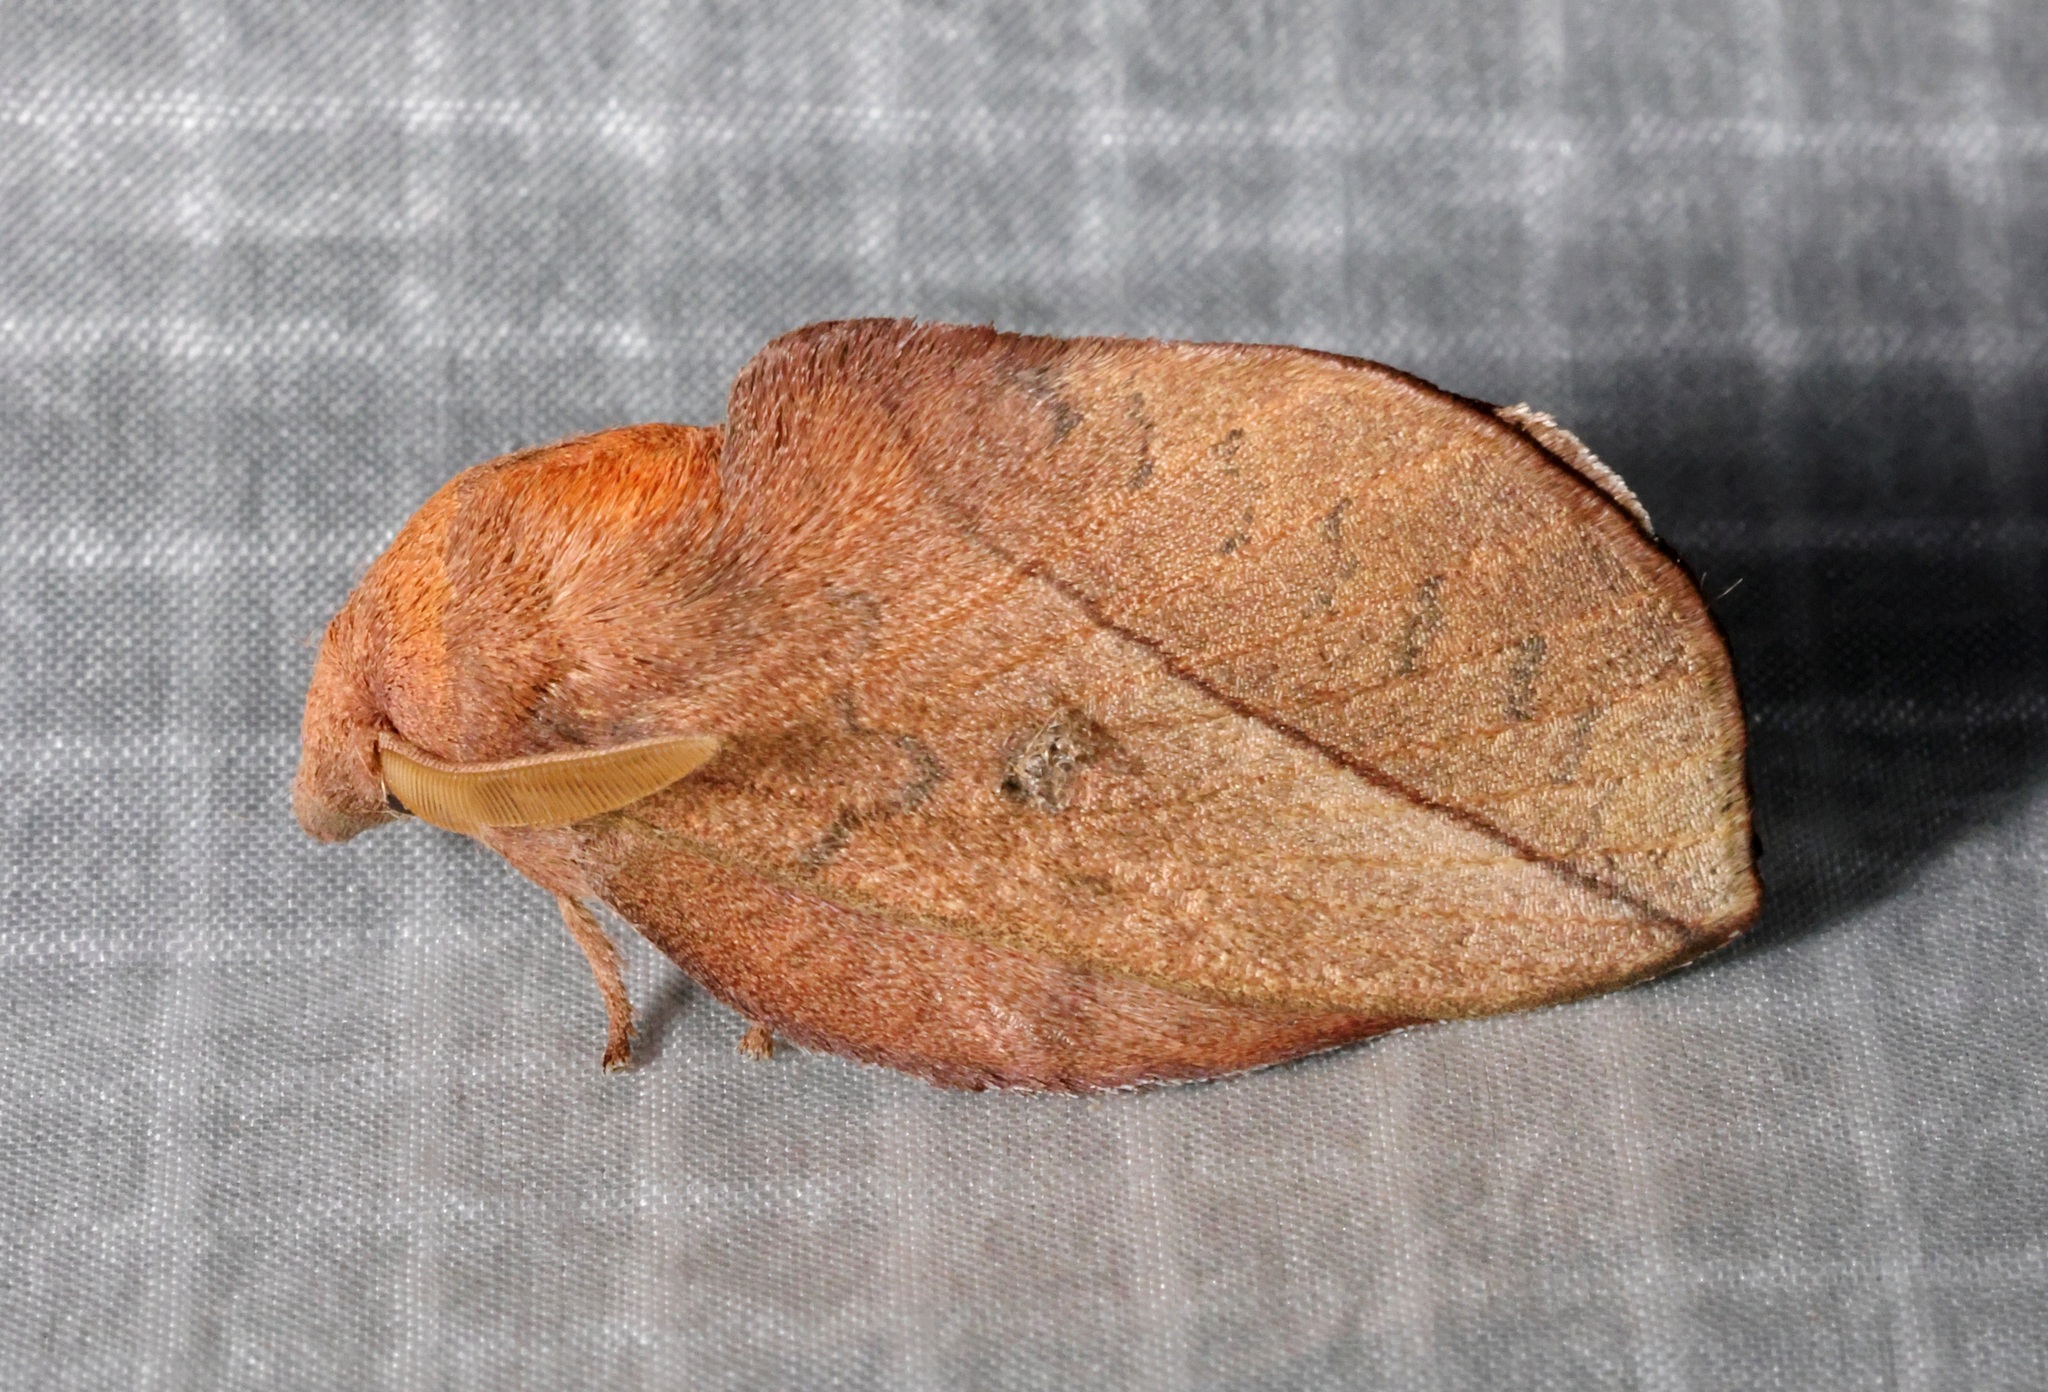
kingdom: Animalia
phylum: Arthropoda
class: Insecta
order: Lepidoptera
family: Lasiocampidae
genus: Euthrix
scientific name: Euthrix isocyma
